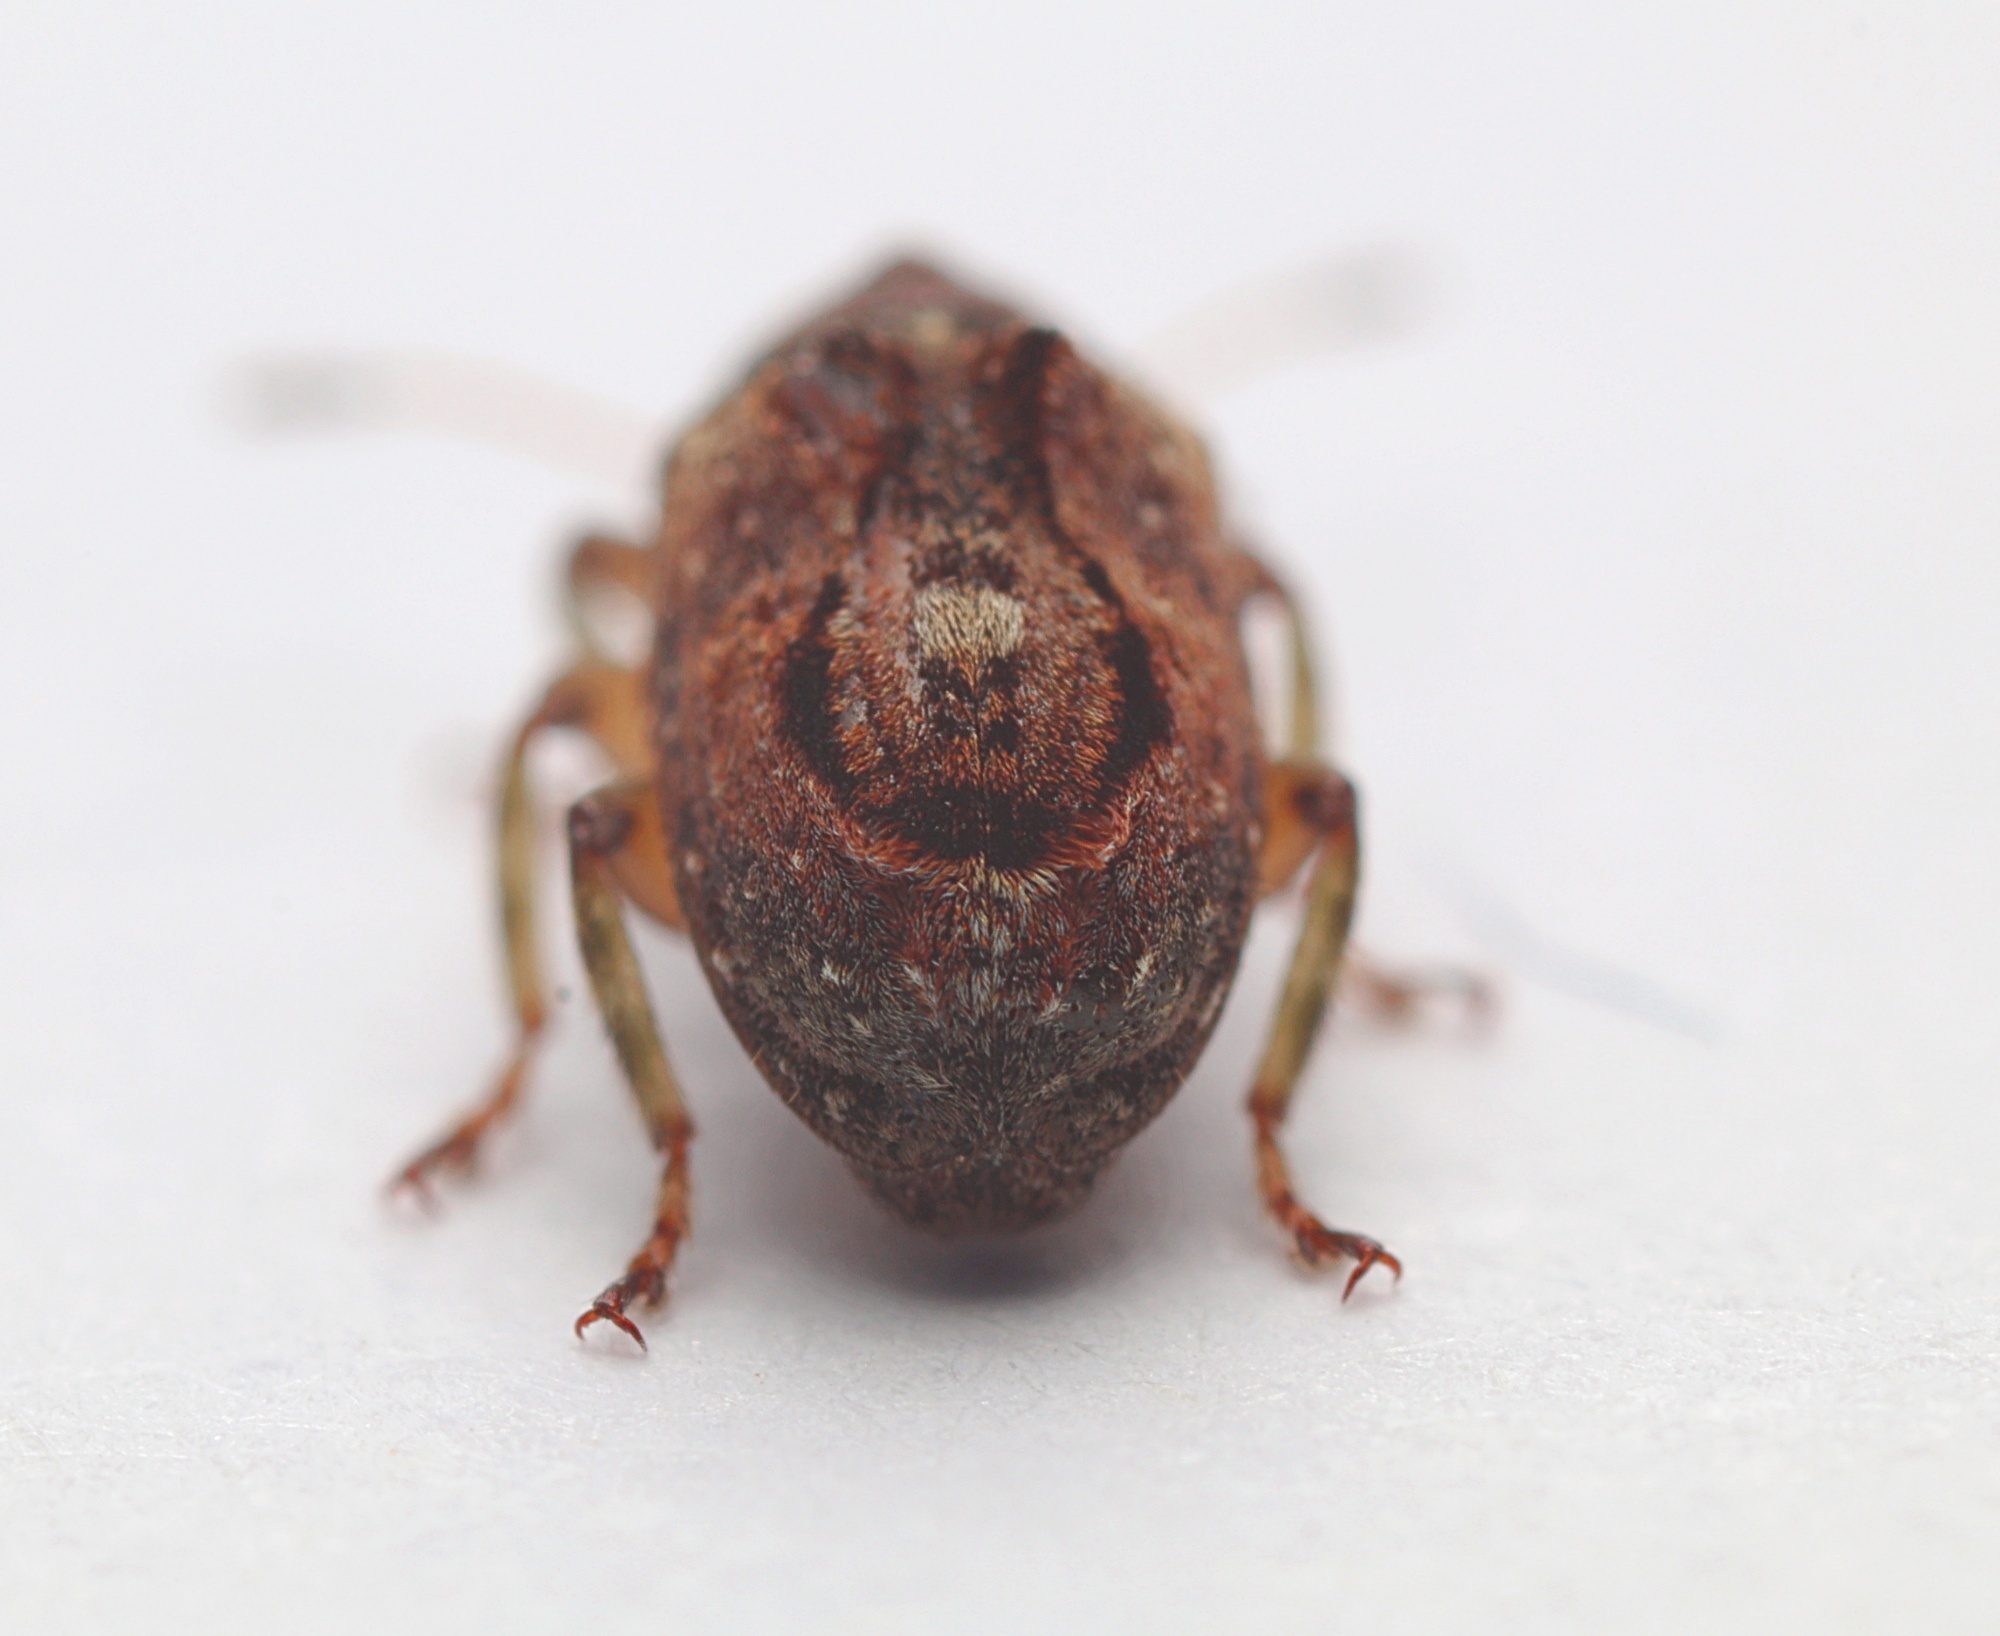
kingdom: Animalia
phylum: Arthropoda
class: Insecta
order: Coleoptera
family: Anthribidae
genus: Garyus
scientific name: Garyus altus
